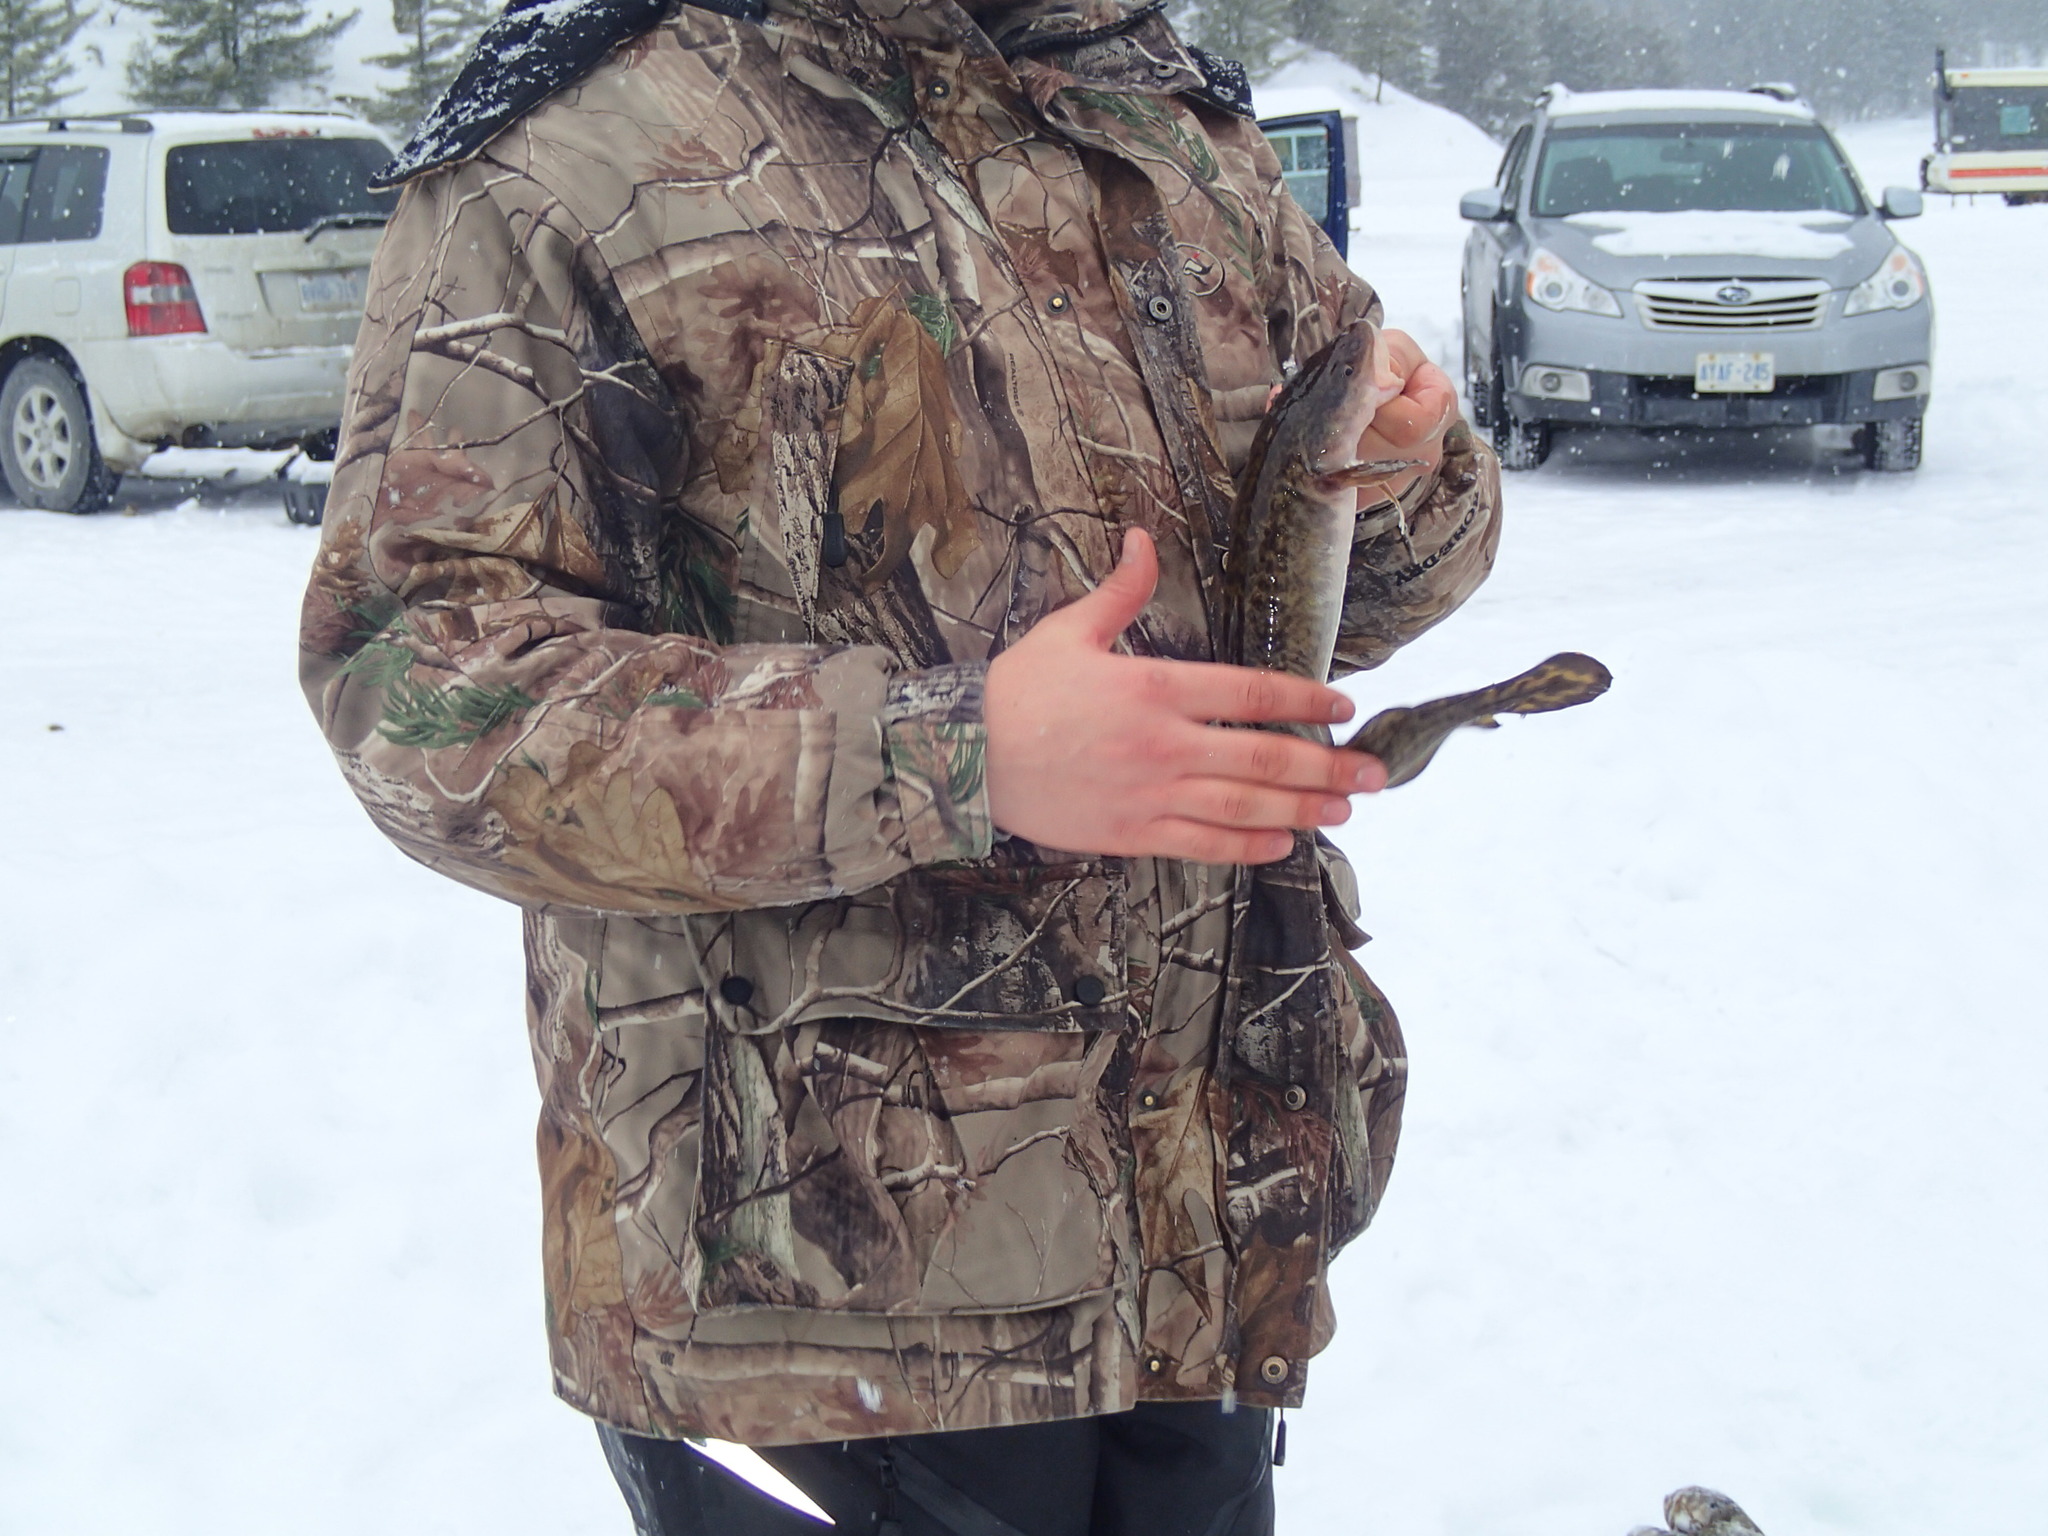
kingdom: Animalia
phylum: Chordata
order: Gadiformes
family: Lotidae
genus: Lota
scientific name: Lota lota
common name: Burbot
